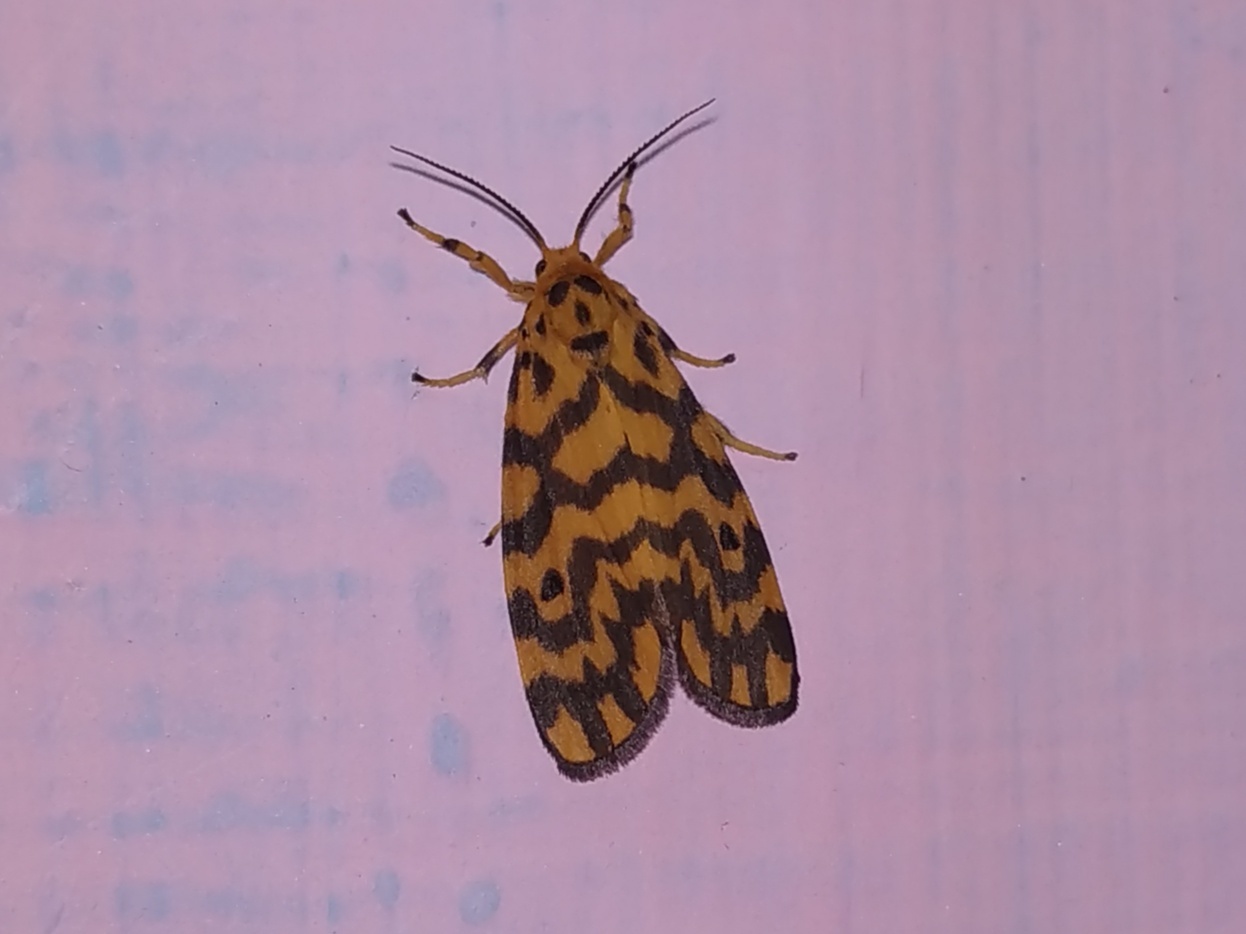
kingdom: Animalia
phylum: Arthropoda
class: Insecta
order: Lepidoptera
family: Erebidae
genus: Nepita
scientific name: Nepita conferta
